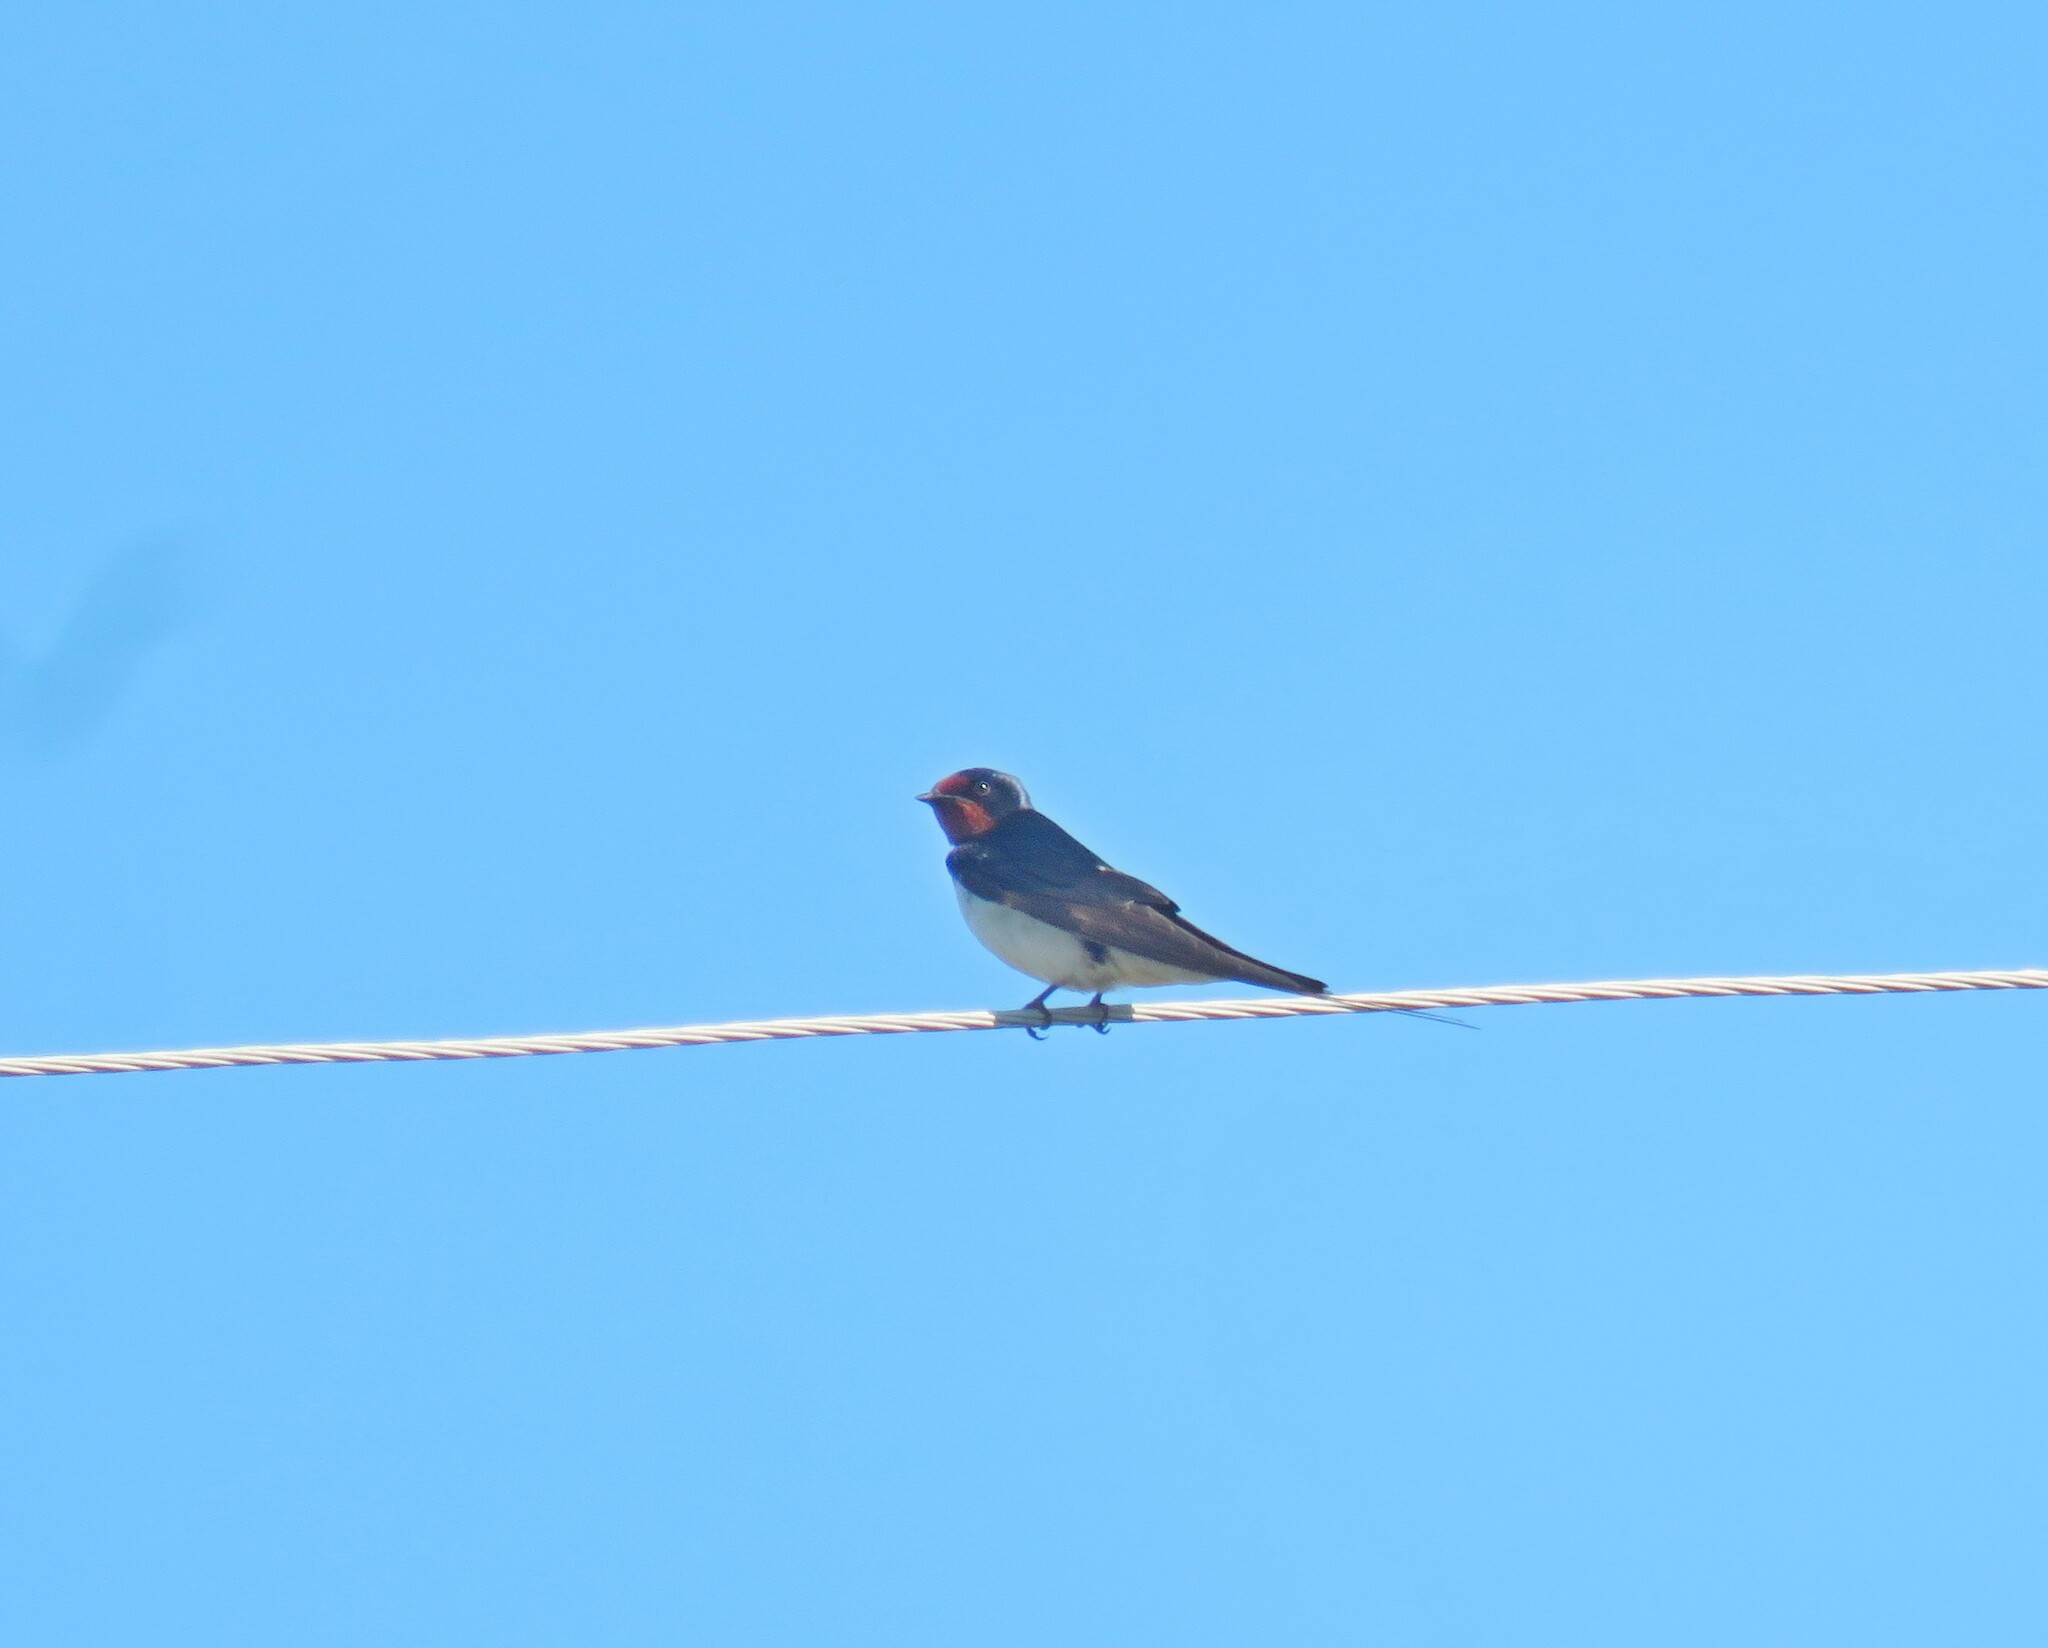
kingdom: Animalia
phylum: Chordata
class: Aves
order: Passeriformes
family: Hirundinidae
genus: Hirundo
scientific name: Hirundo rustica
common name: Barn swallow
